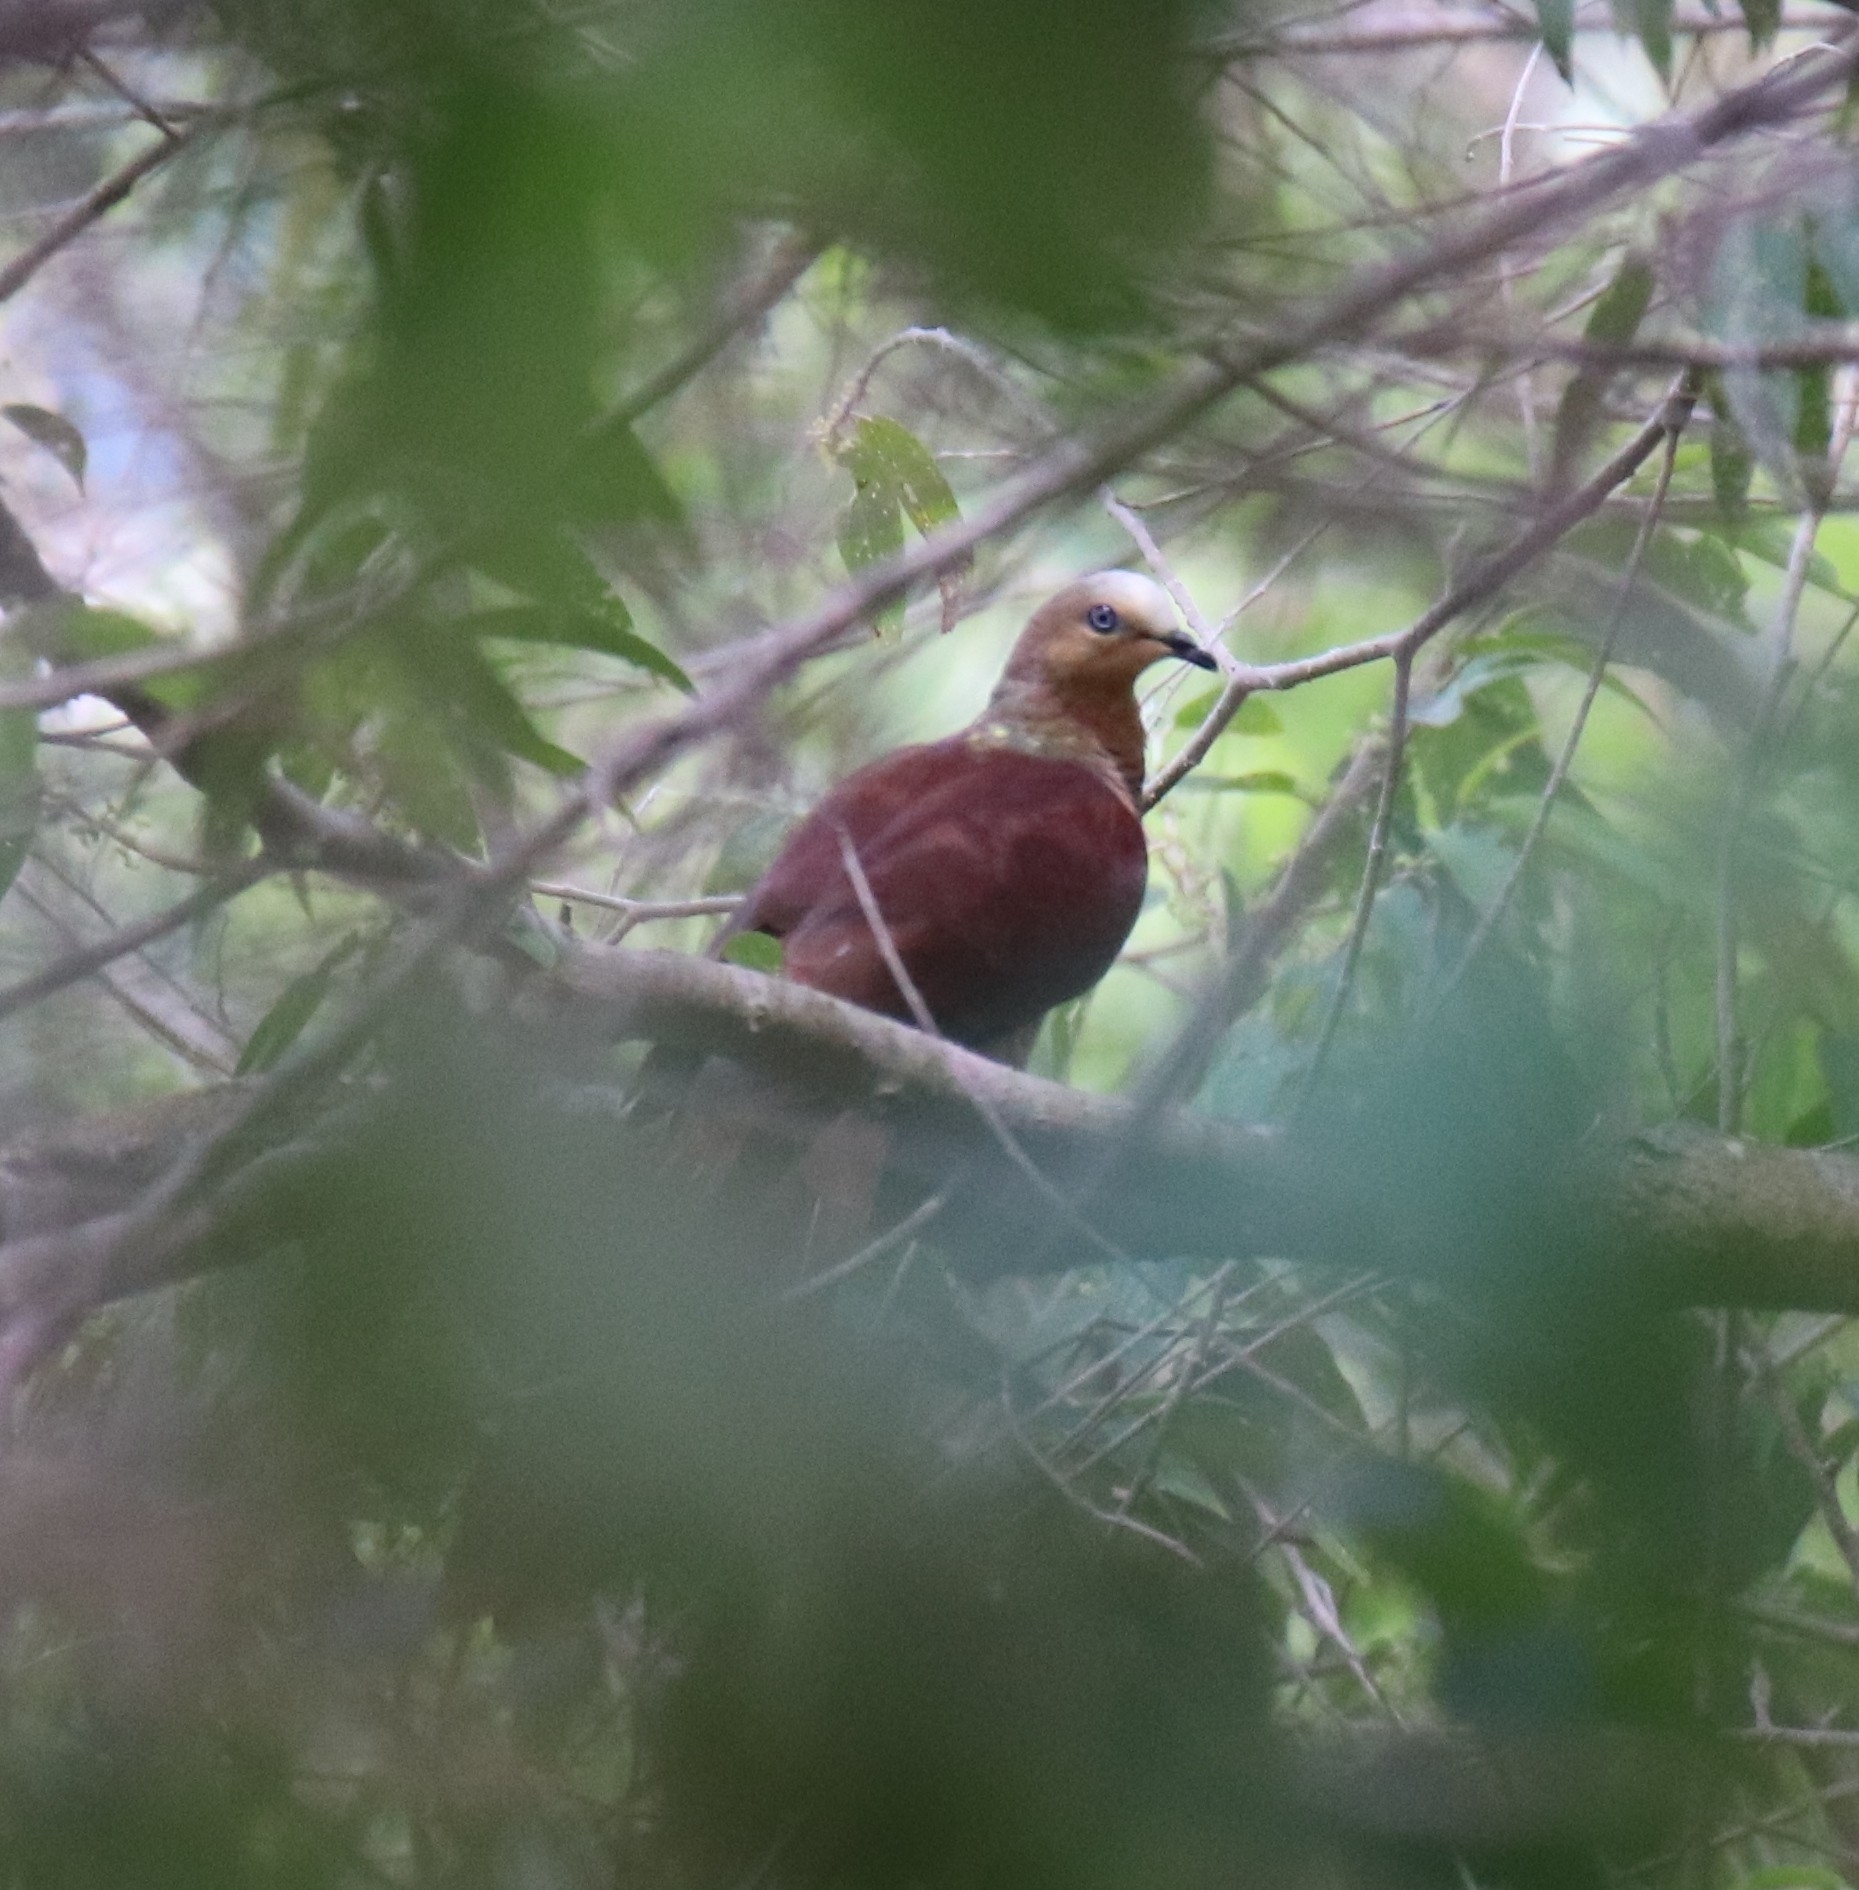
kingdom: Animalia
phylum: Chordata
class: Aves
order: Columbiformes
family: Columbidae
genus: Macropygia
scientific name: Macropygia doreya
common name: Sultan's cuckoo-dove
